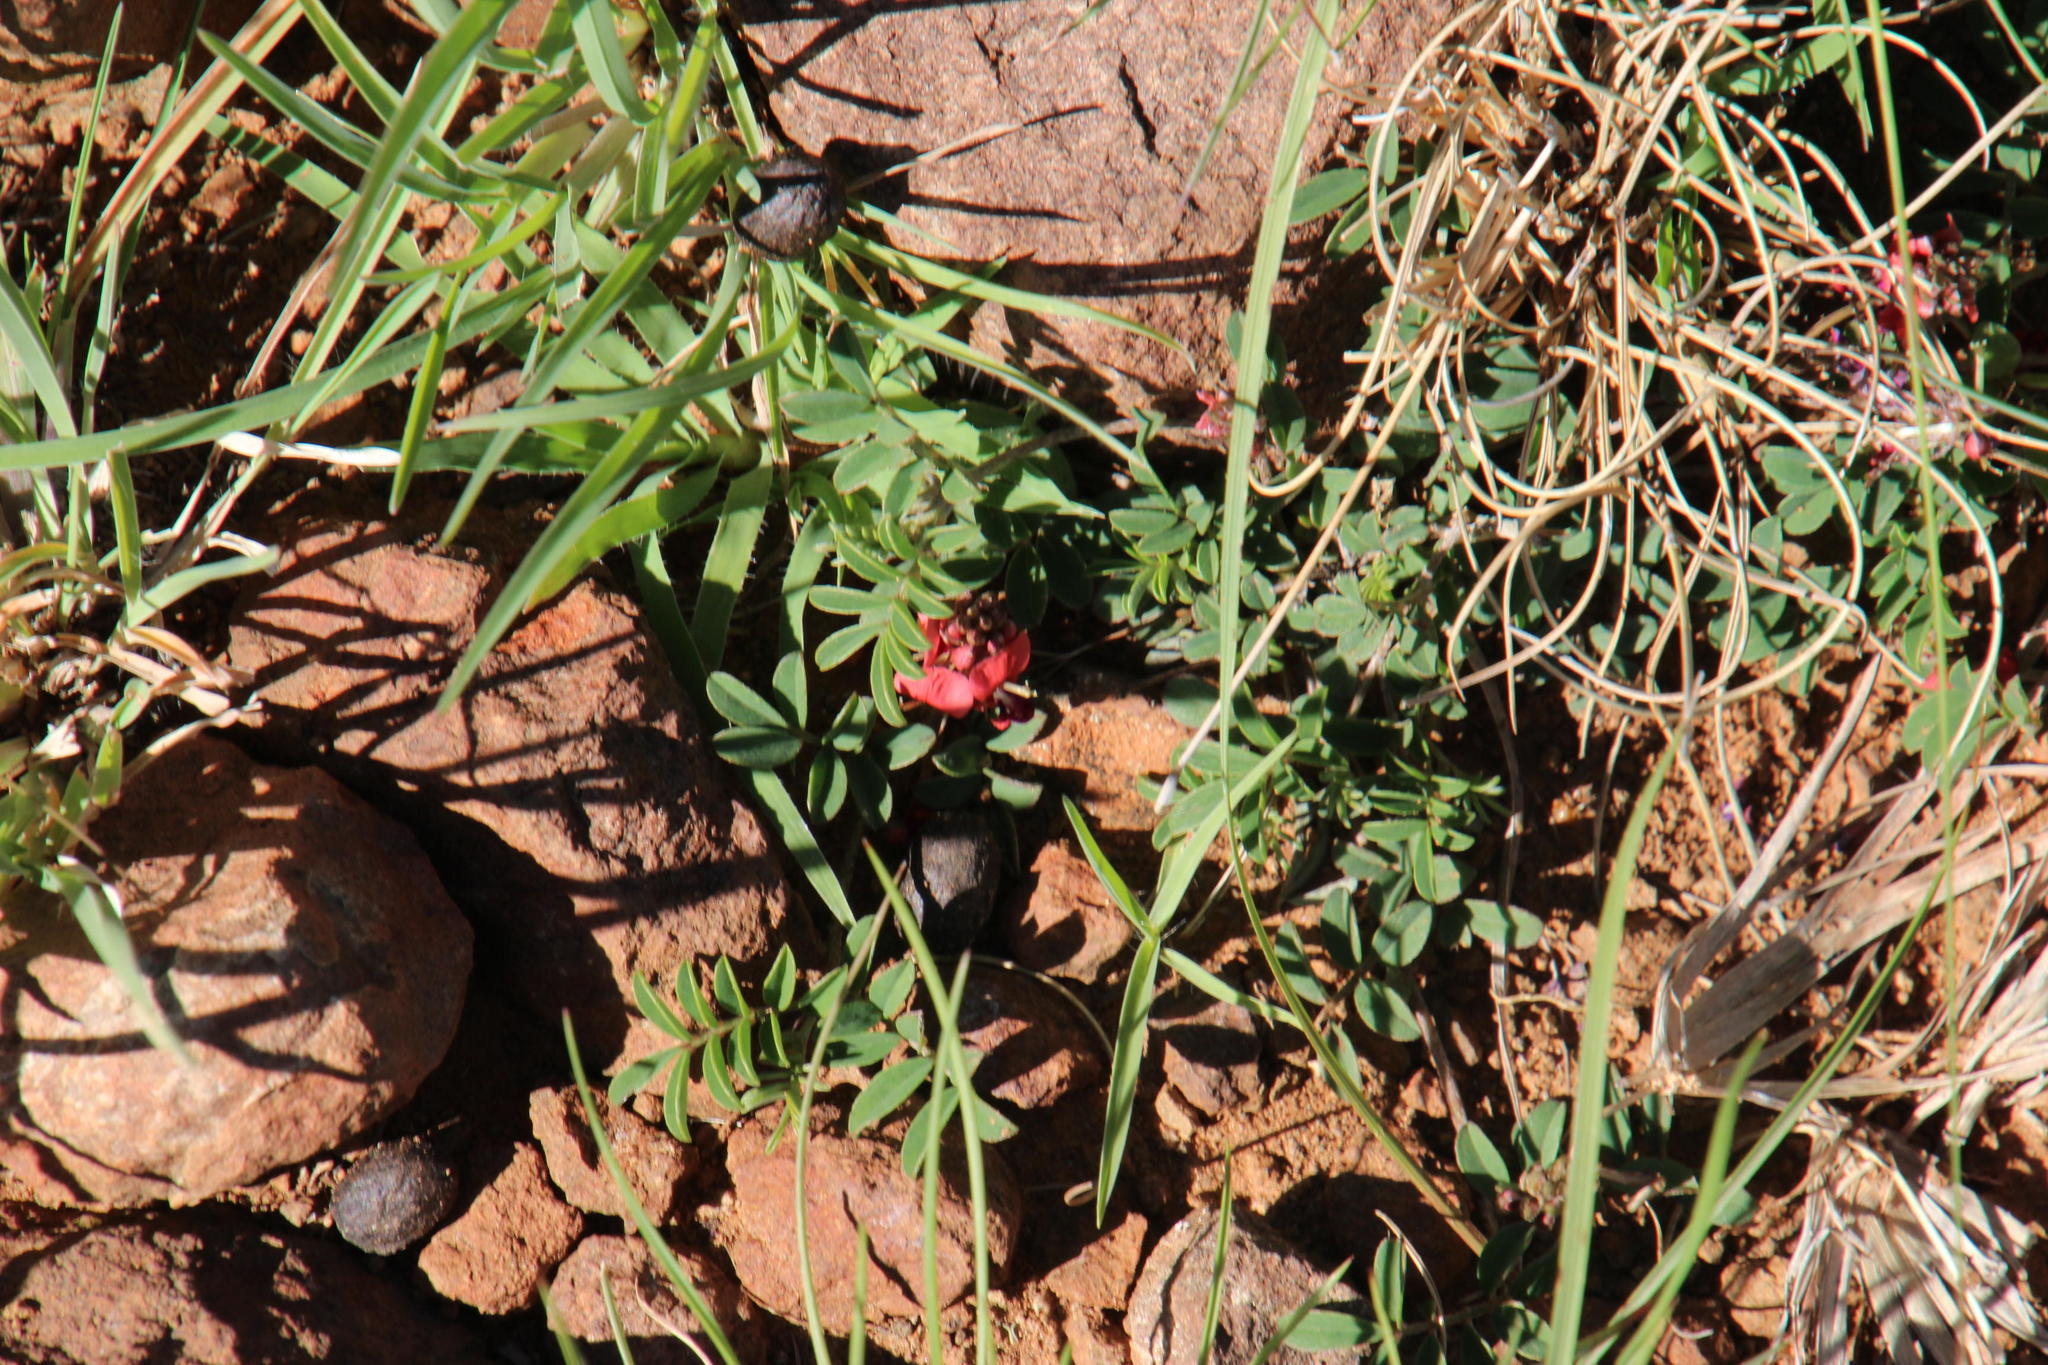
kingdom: Plantae
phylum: Tracheophyta
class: Magnoliopsida
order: Fabales
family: Fabaceae
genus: Indigofera
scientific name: Indigofera alternans
